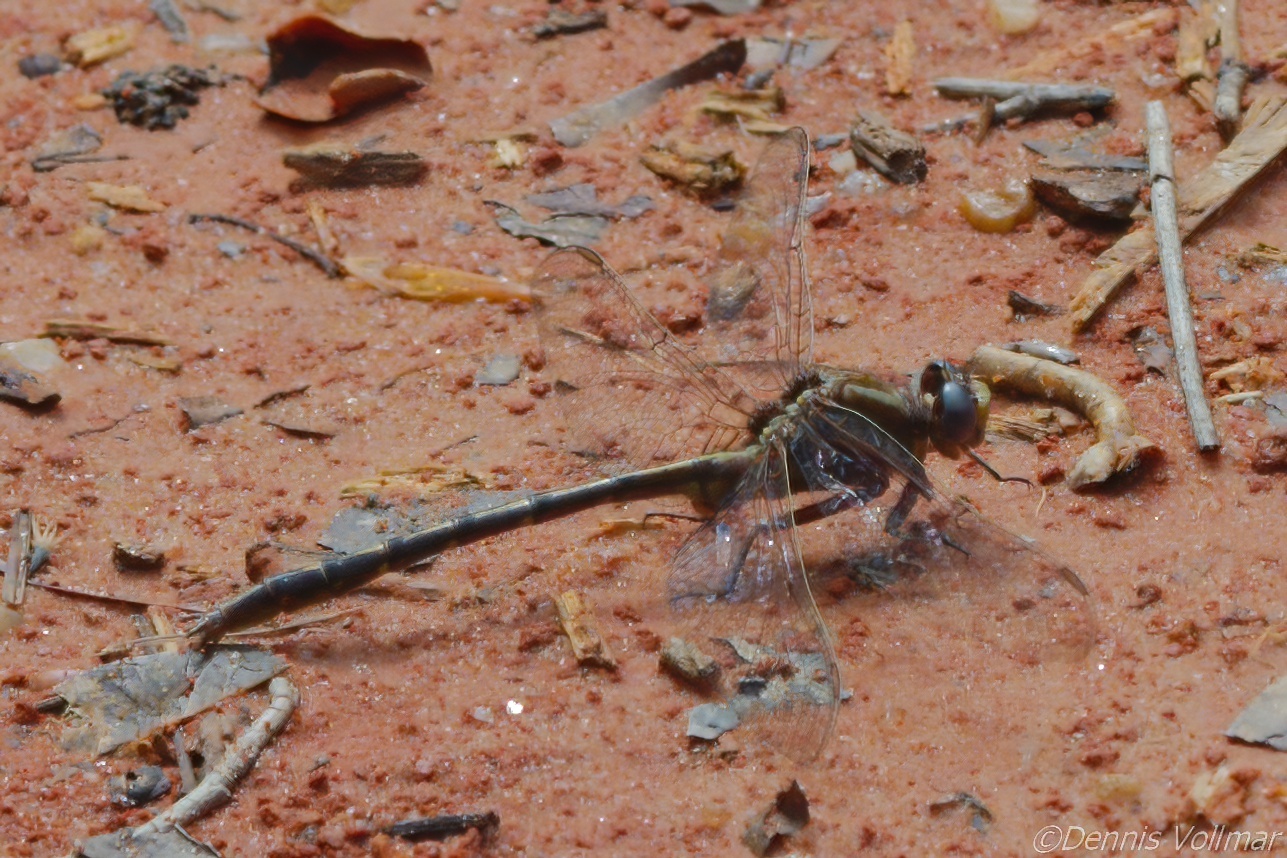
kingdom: Animalia
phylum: Arthropoda
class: Insecta
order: Odonata
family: Gomphidae
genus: Phanogomphus
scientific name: Phanogomphus lividus
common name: Ashy clubtail
